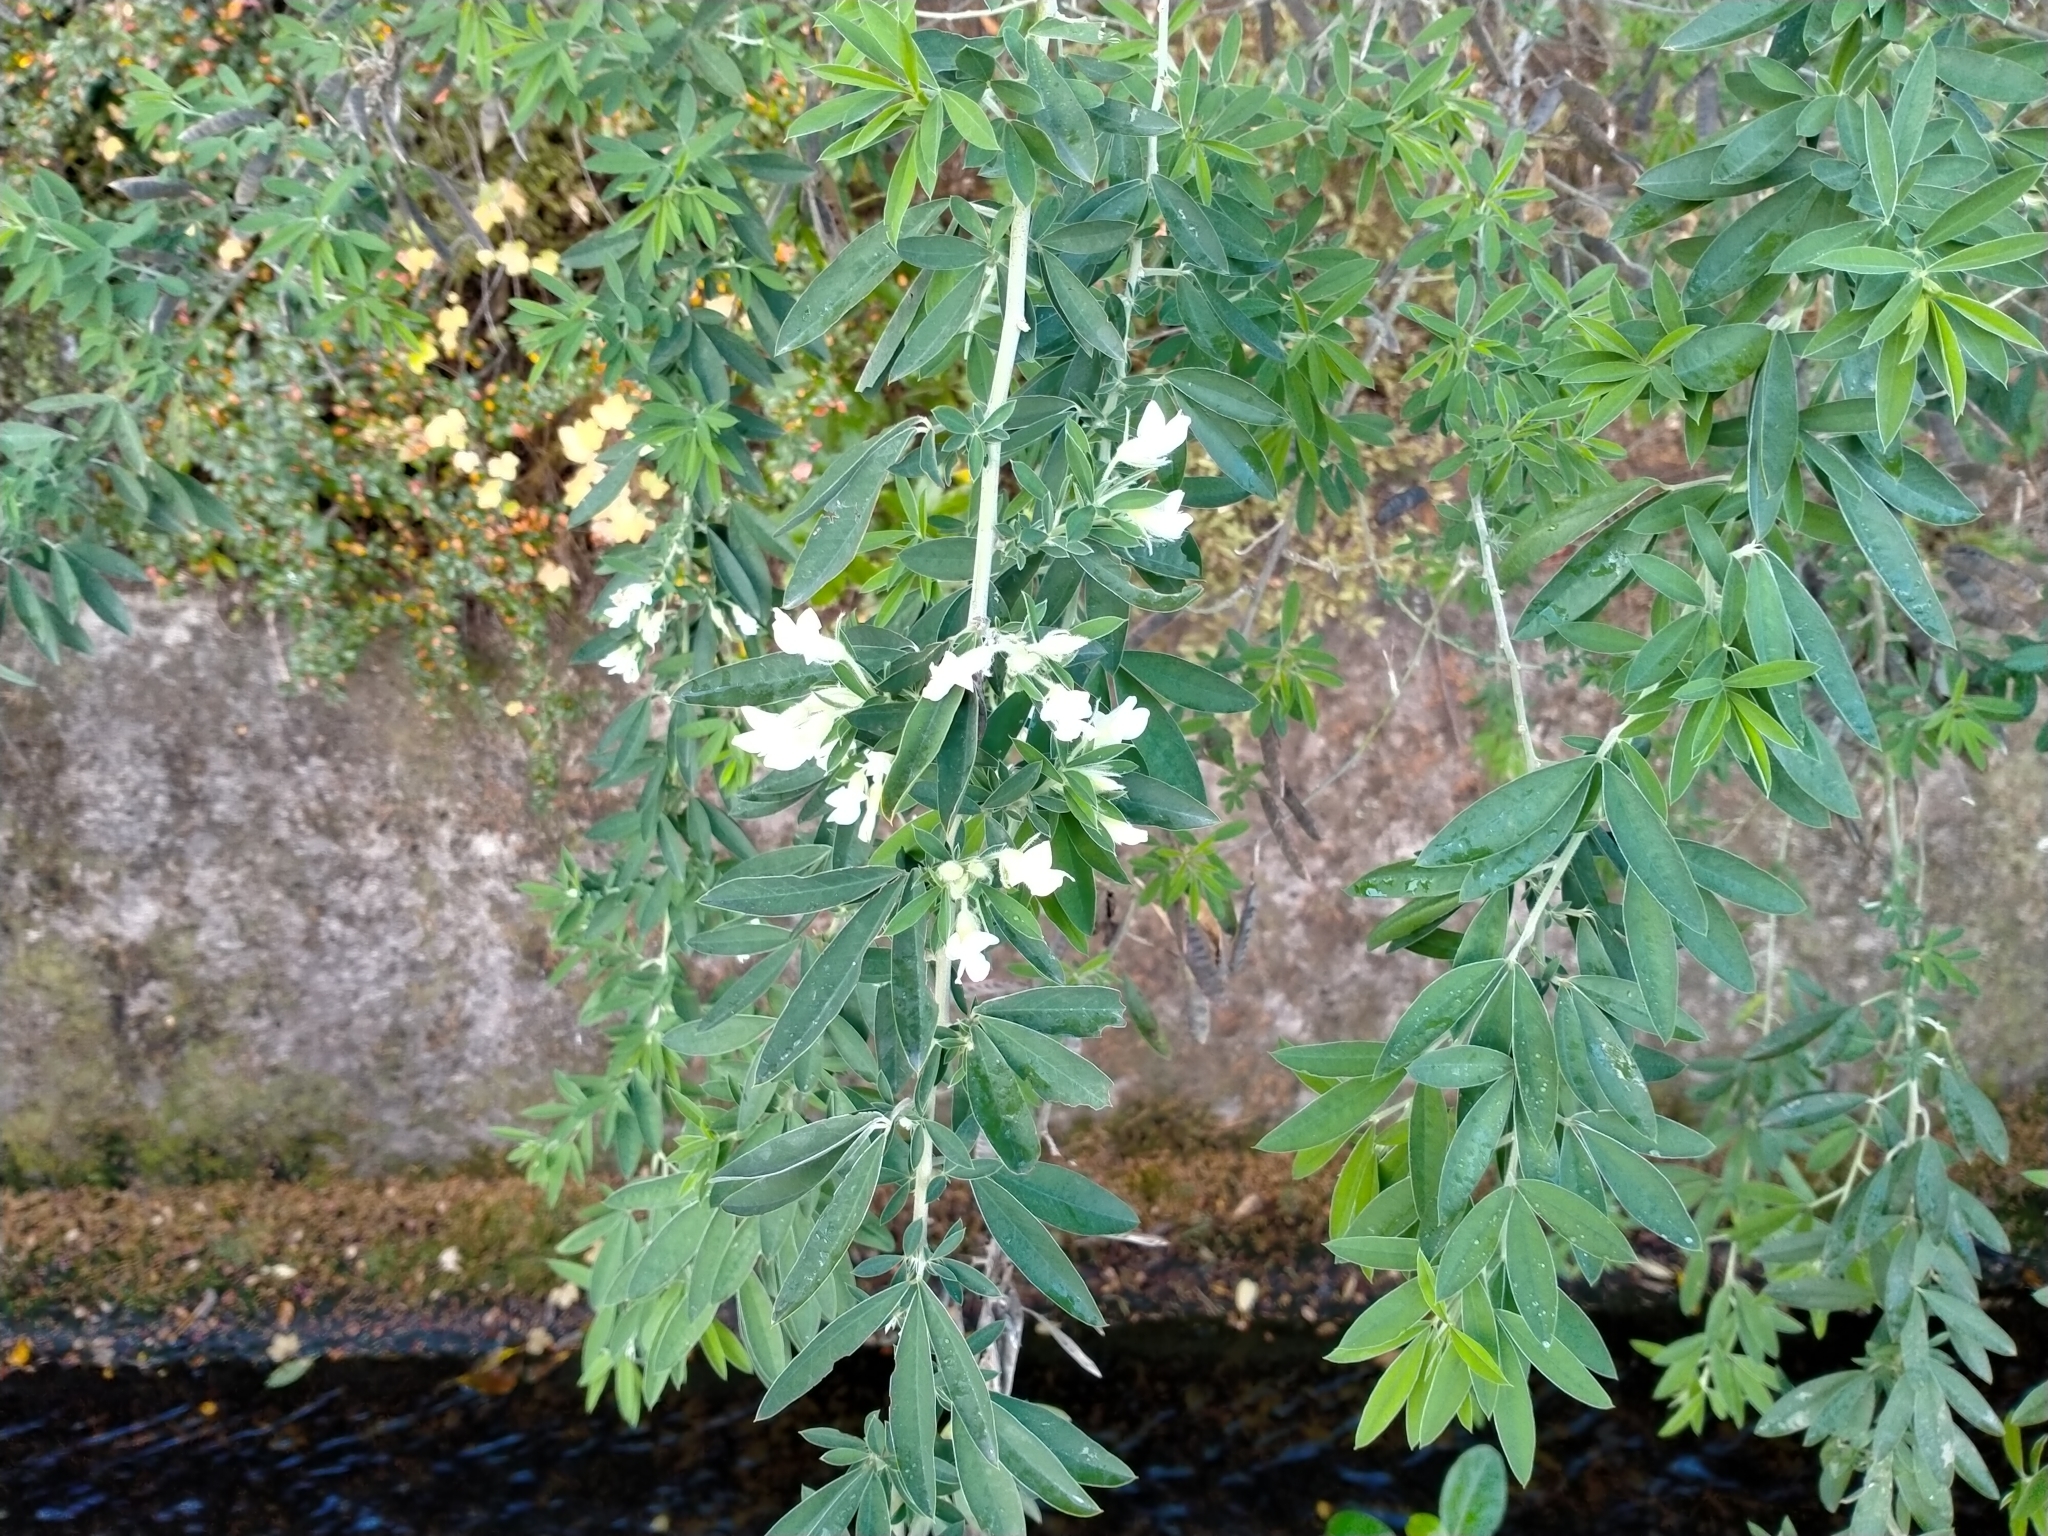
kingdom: Plantae
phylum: Tracheophyta
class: Magnoliopsida
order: Fabales
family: Fabaceae
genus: Chamaecytisus
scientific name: Chamaecytisus prolifer
